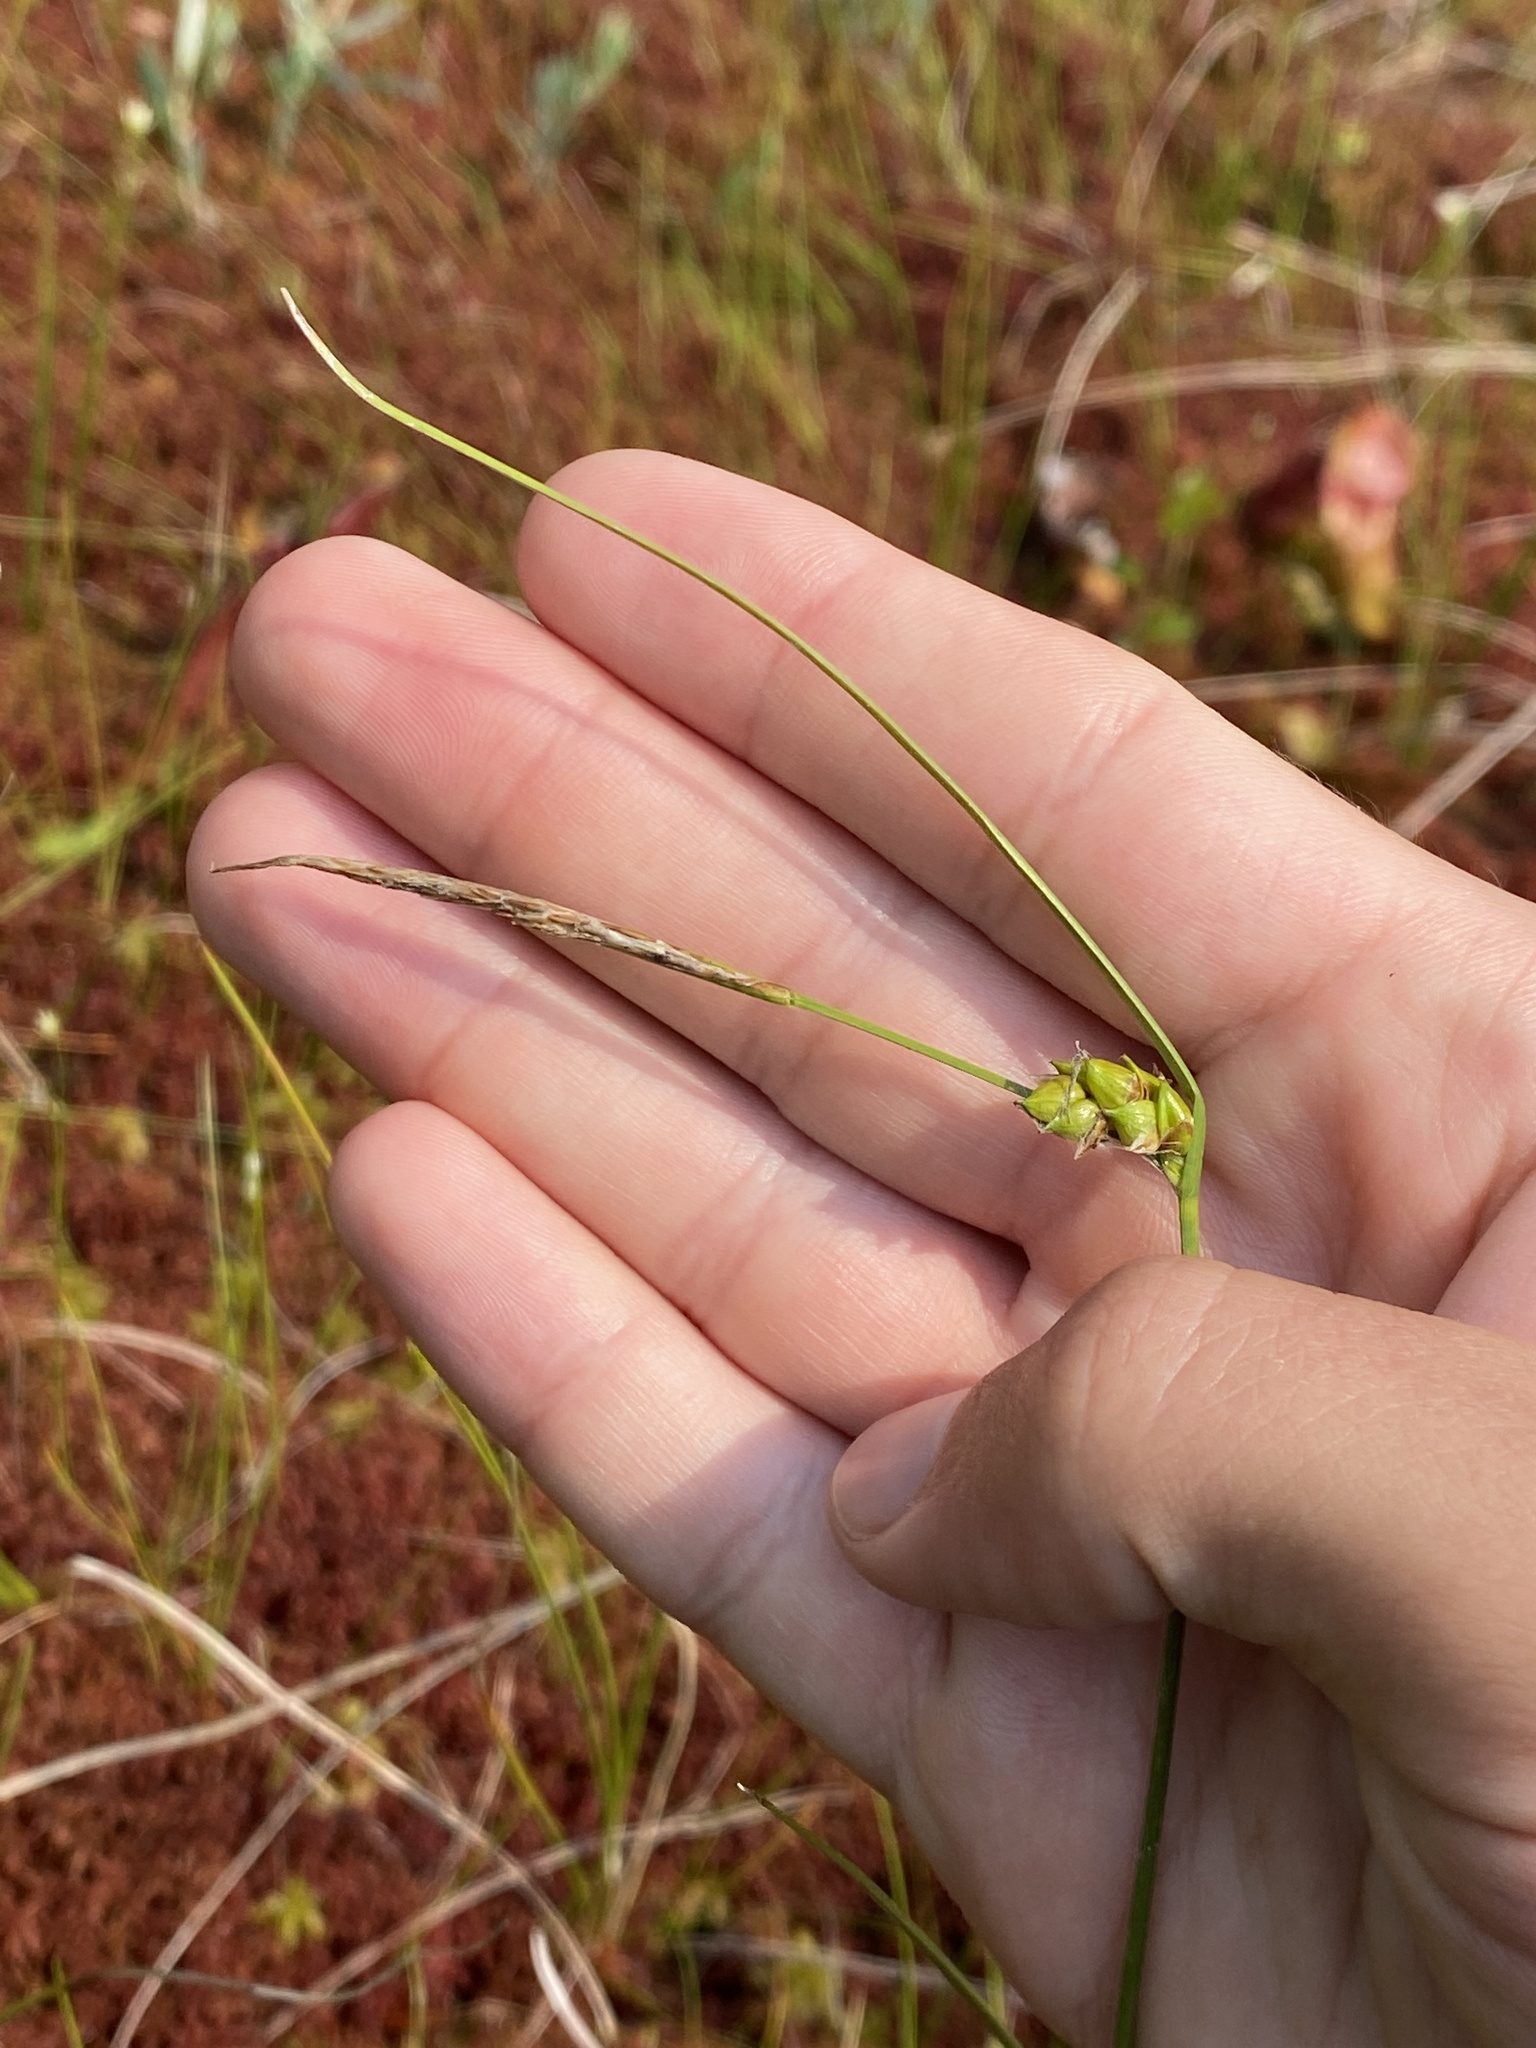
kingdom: Plantae
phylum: Tracheophyta
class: Liliopsida
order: Poales
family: Cyperaceae
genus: Carex
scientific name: Carex oligosperma
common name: Few-seed sedge
